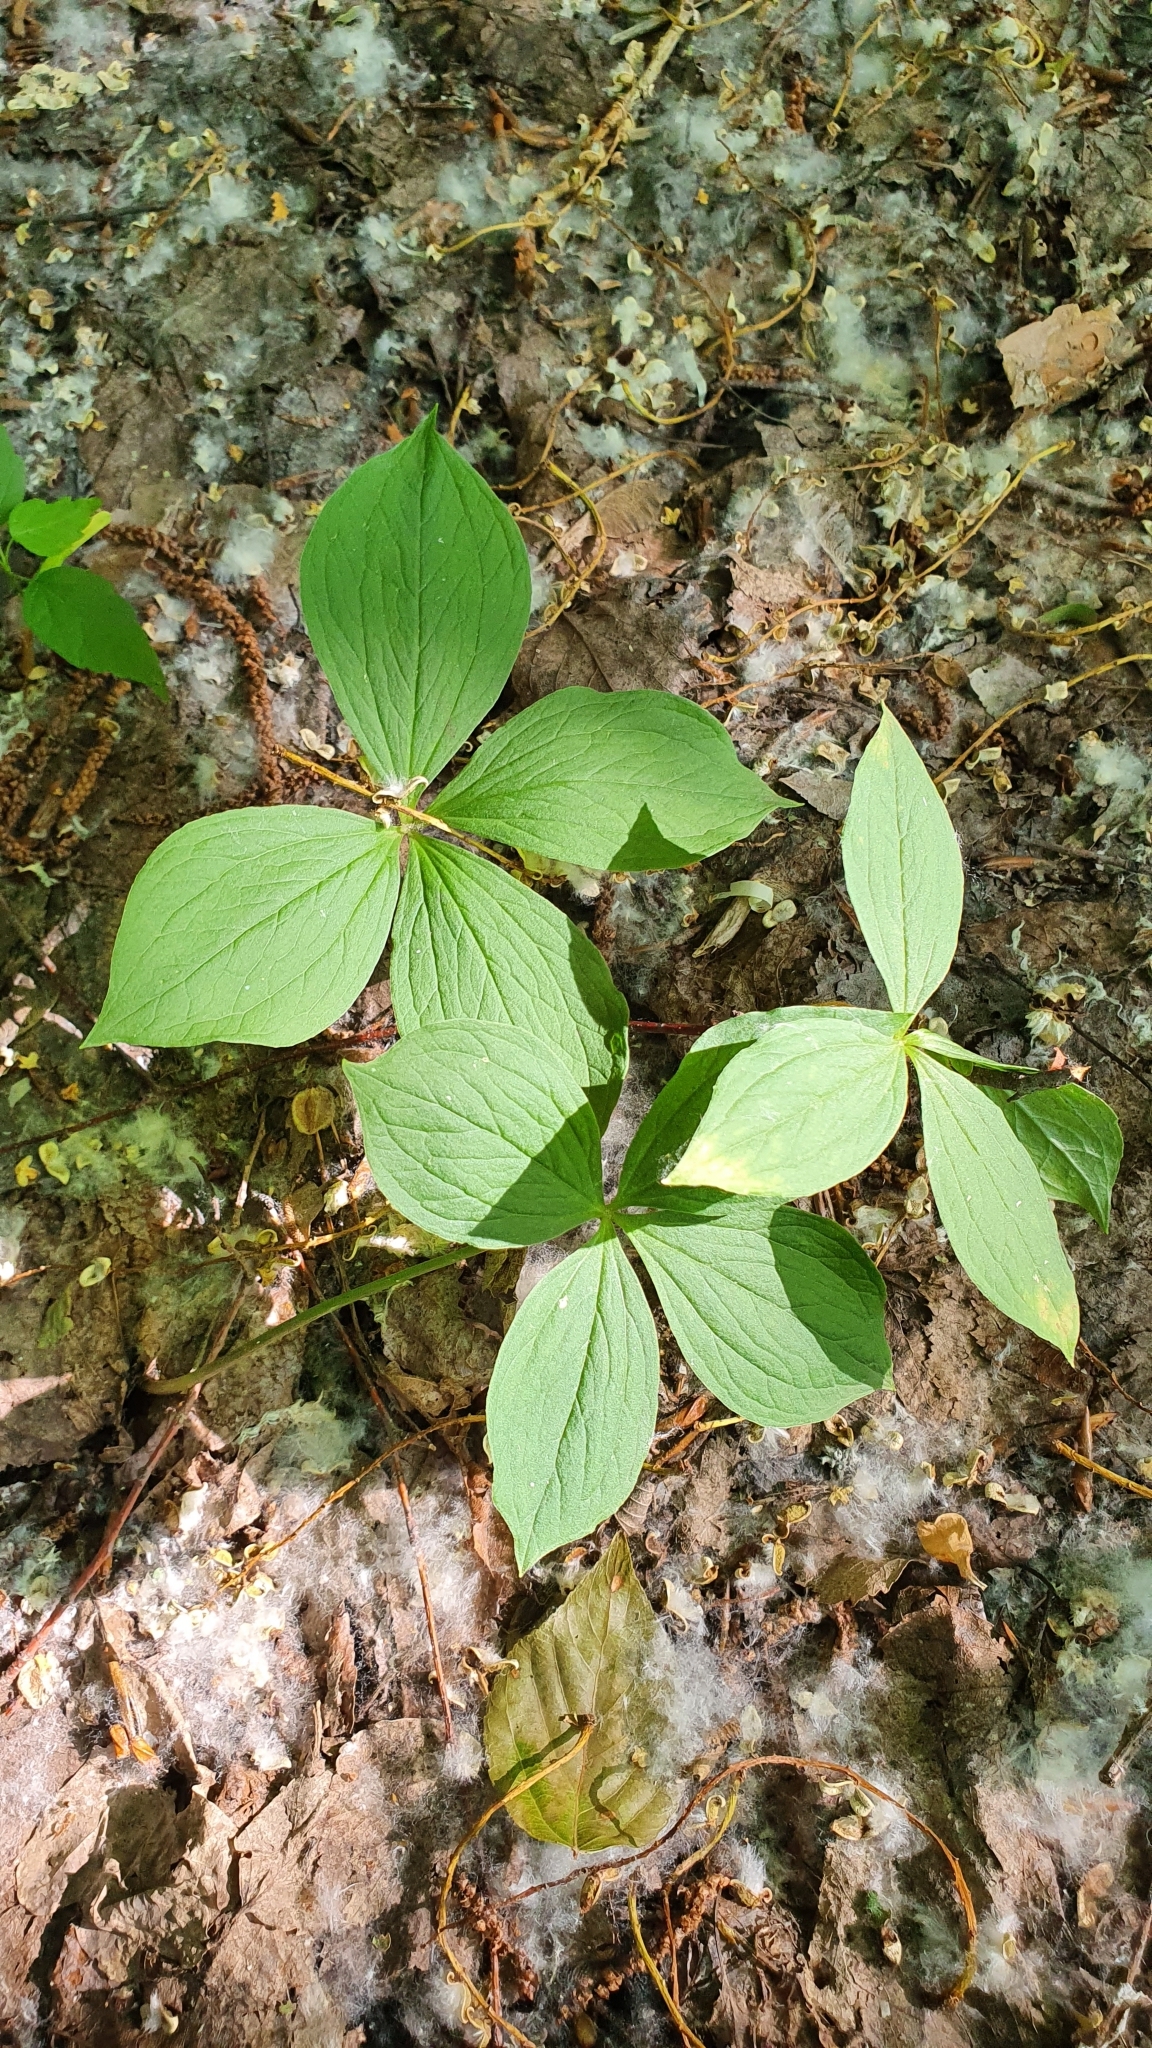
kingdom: Plantae
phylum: Tracheophyta
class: Liliopsida
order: Liliales
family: Melanthiaceae
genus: Paris
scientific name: Paris quadrifolia
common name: Herb-paris
